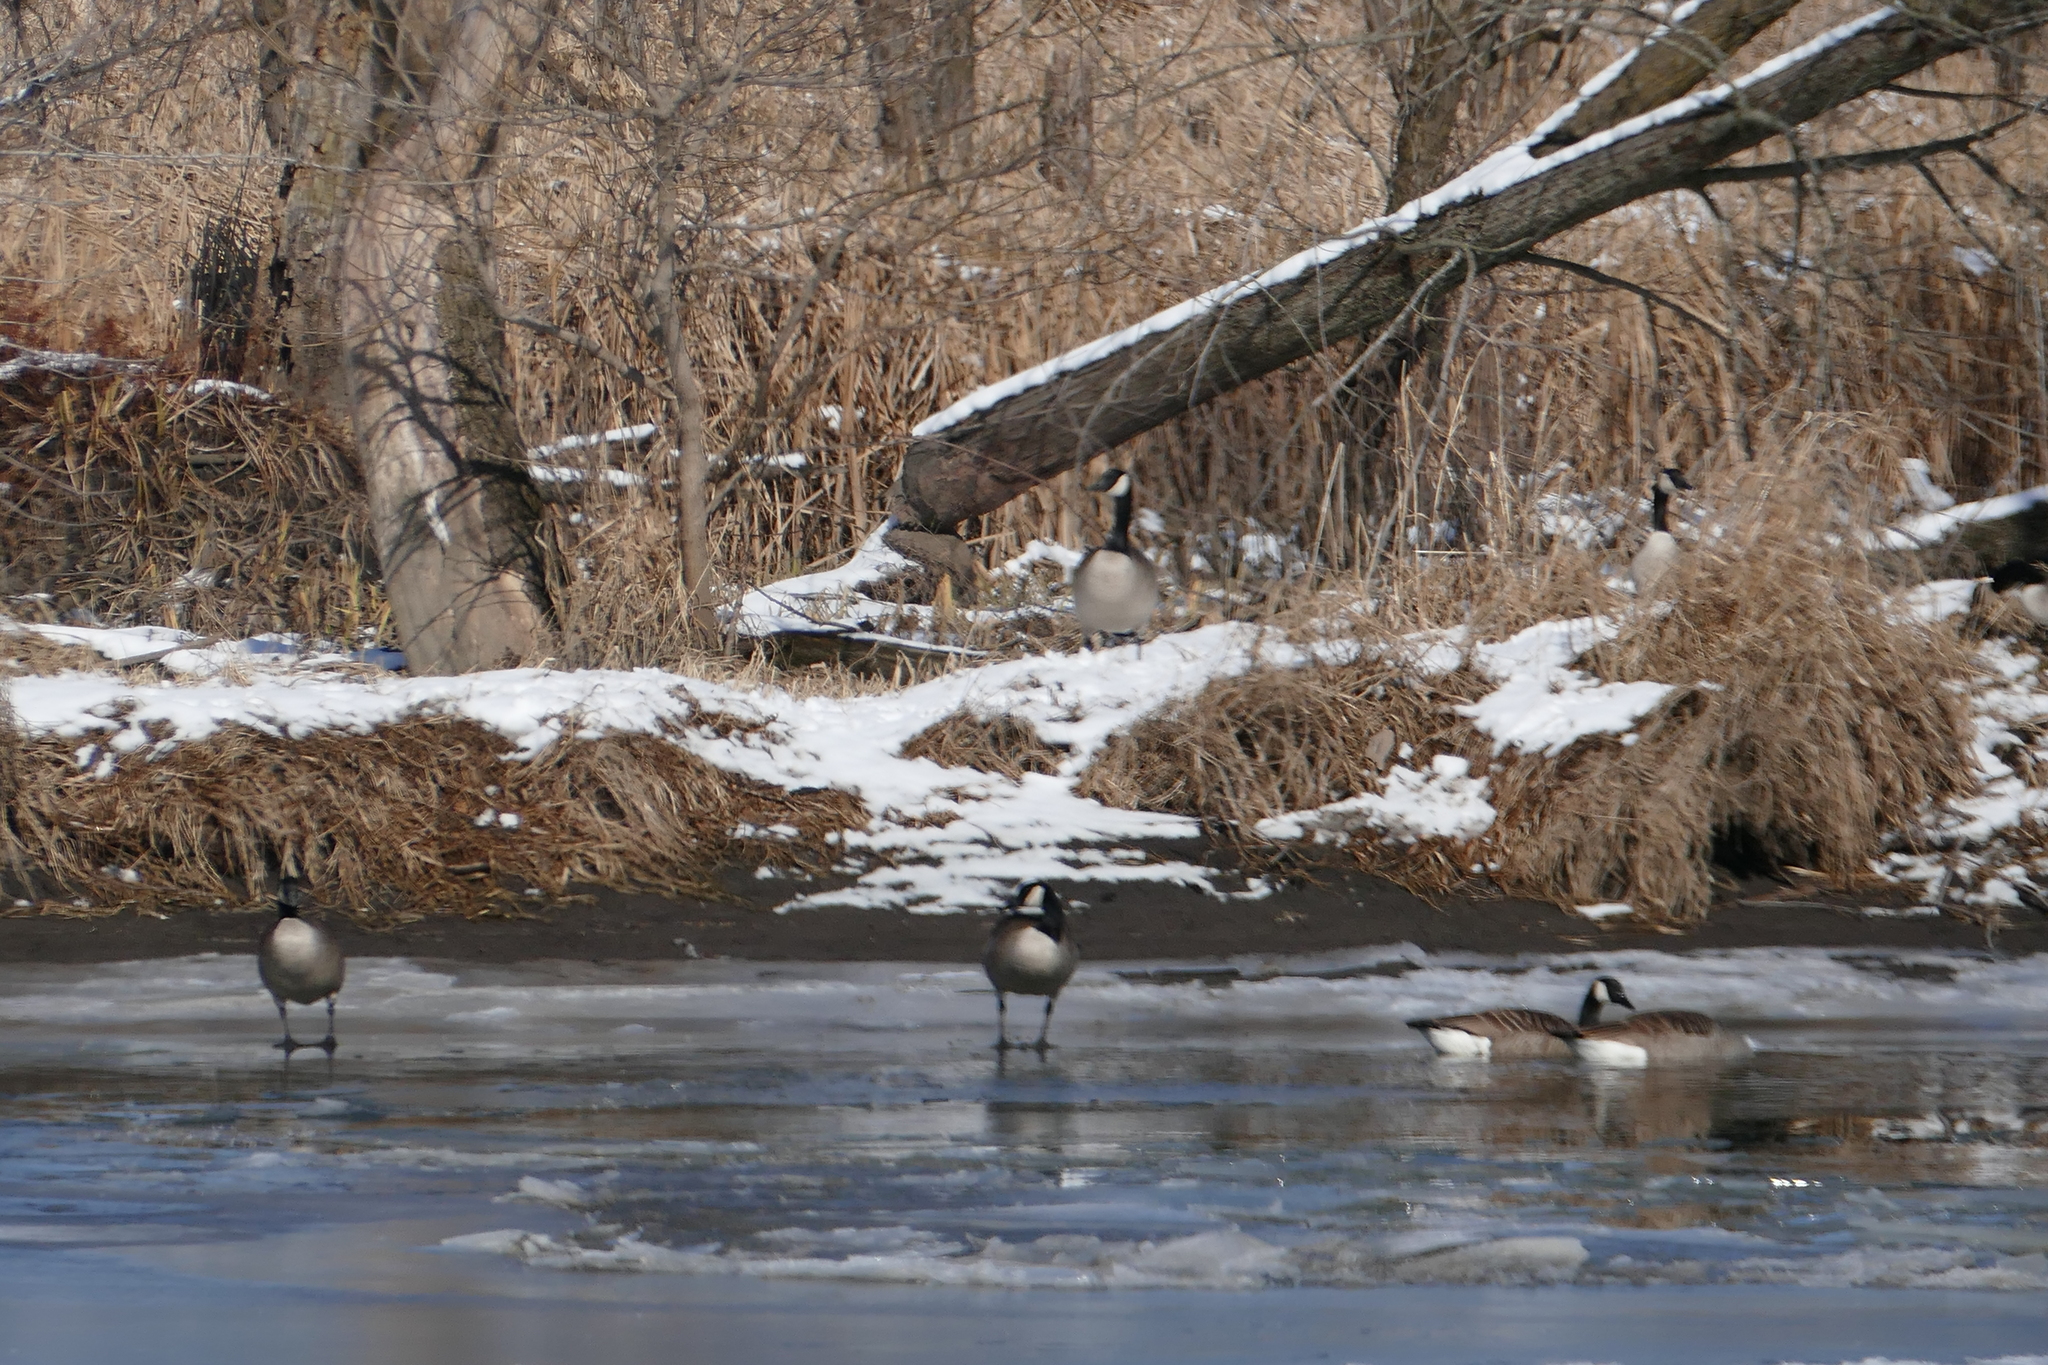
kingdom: Animalia
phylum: Chordata
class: Aves
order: Anseriformes
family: Anatidae
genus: Branta
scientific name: Branta canadensis
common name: Canada goose
